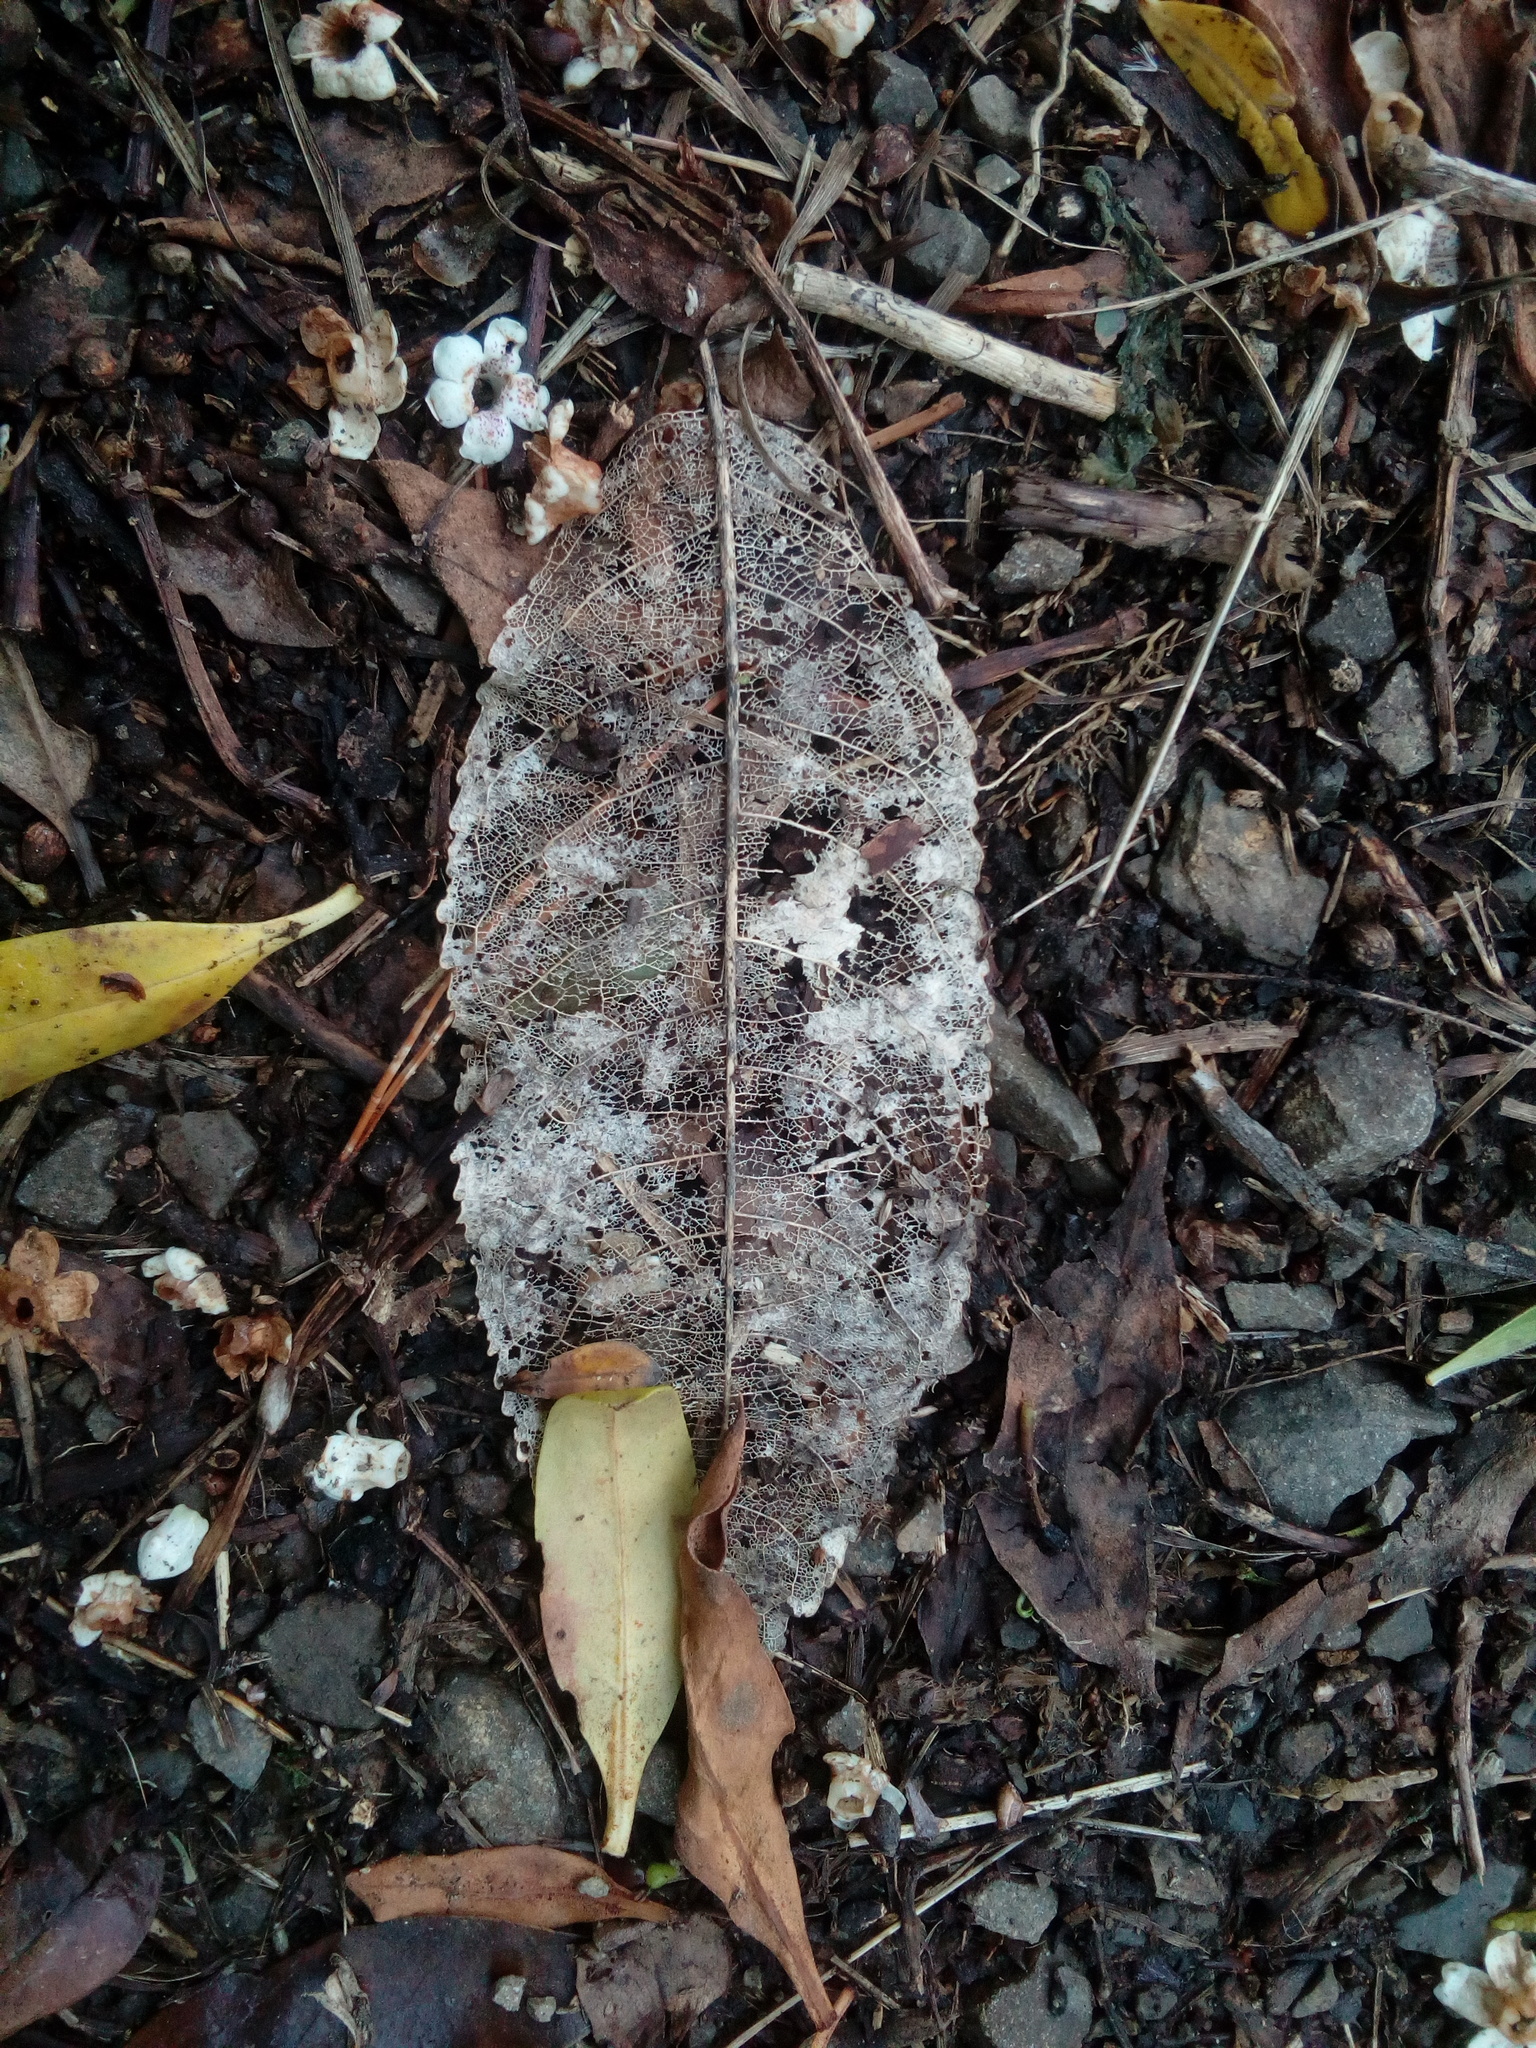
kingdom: Plantae
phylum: Tracheophyta
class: Magnoliopsida
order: Malpighiales
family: Violaceae
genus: Melicytus
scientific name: Melicytus ramiflorus
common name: Mahoe
